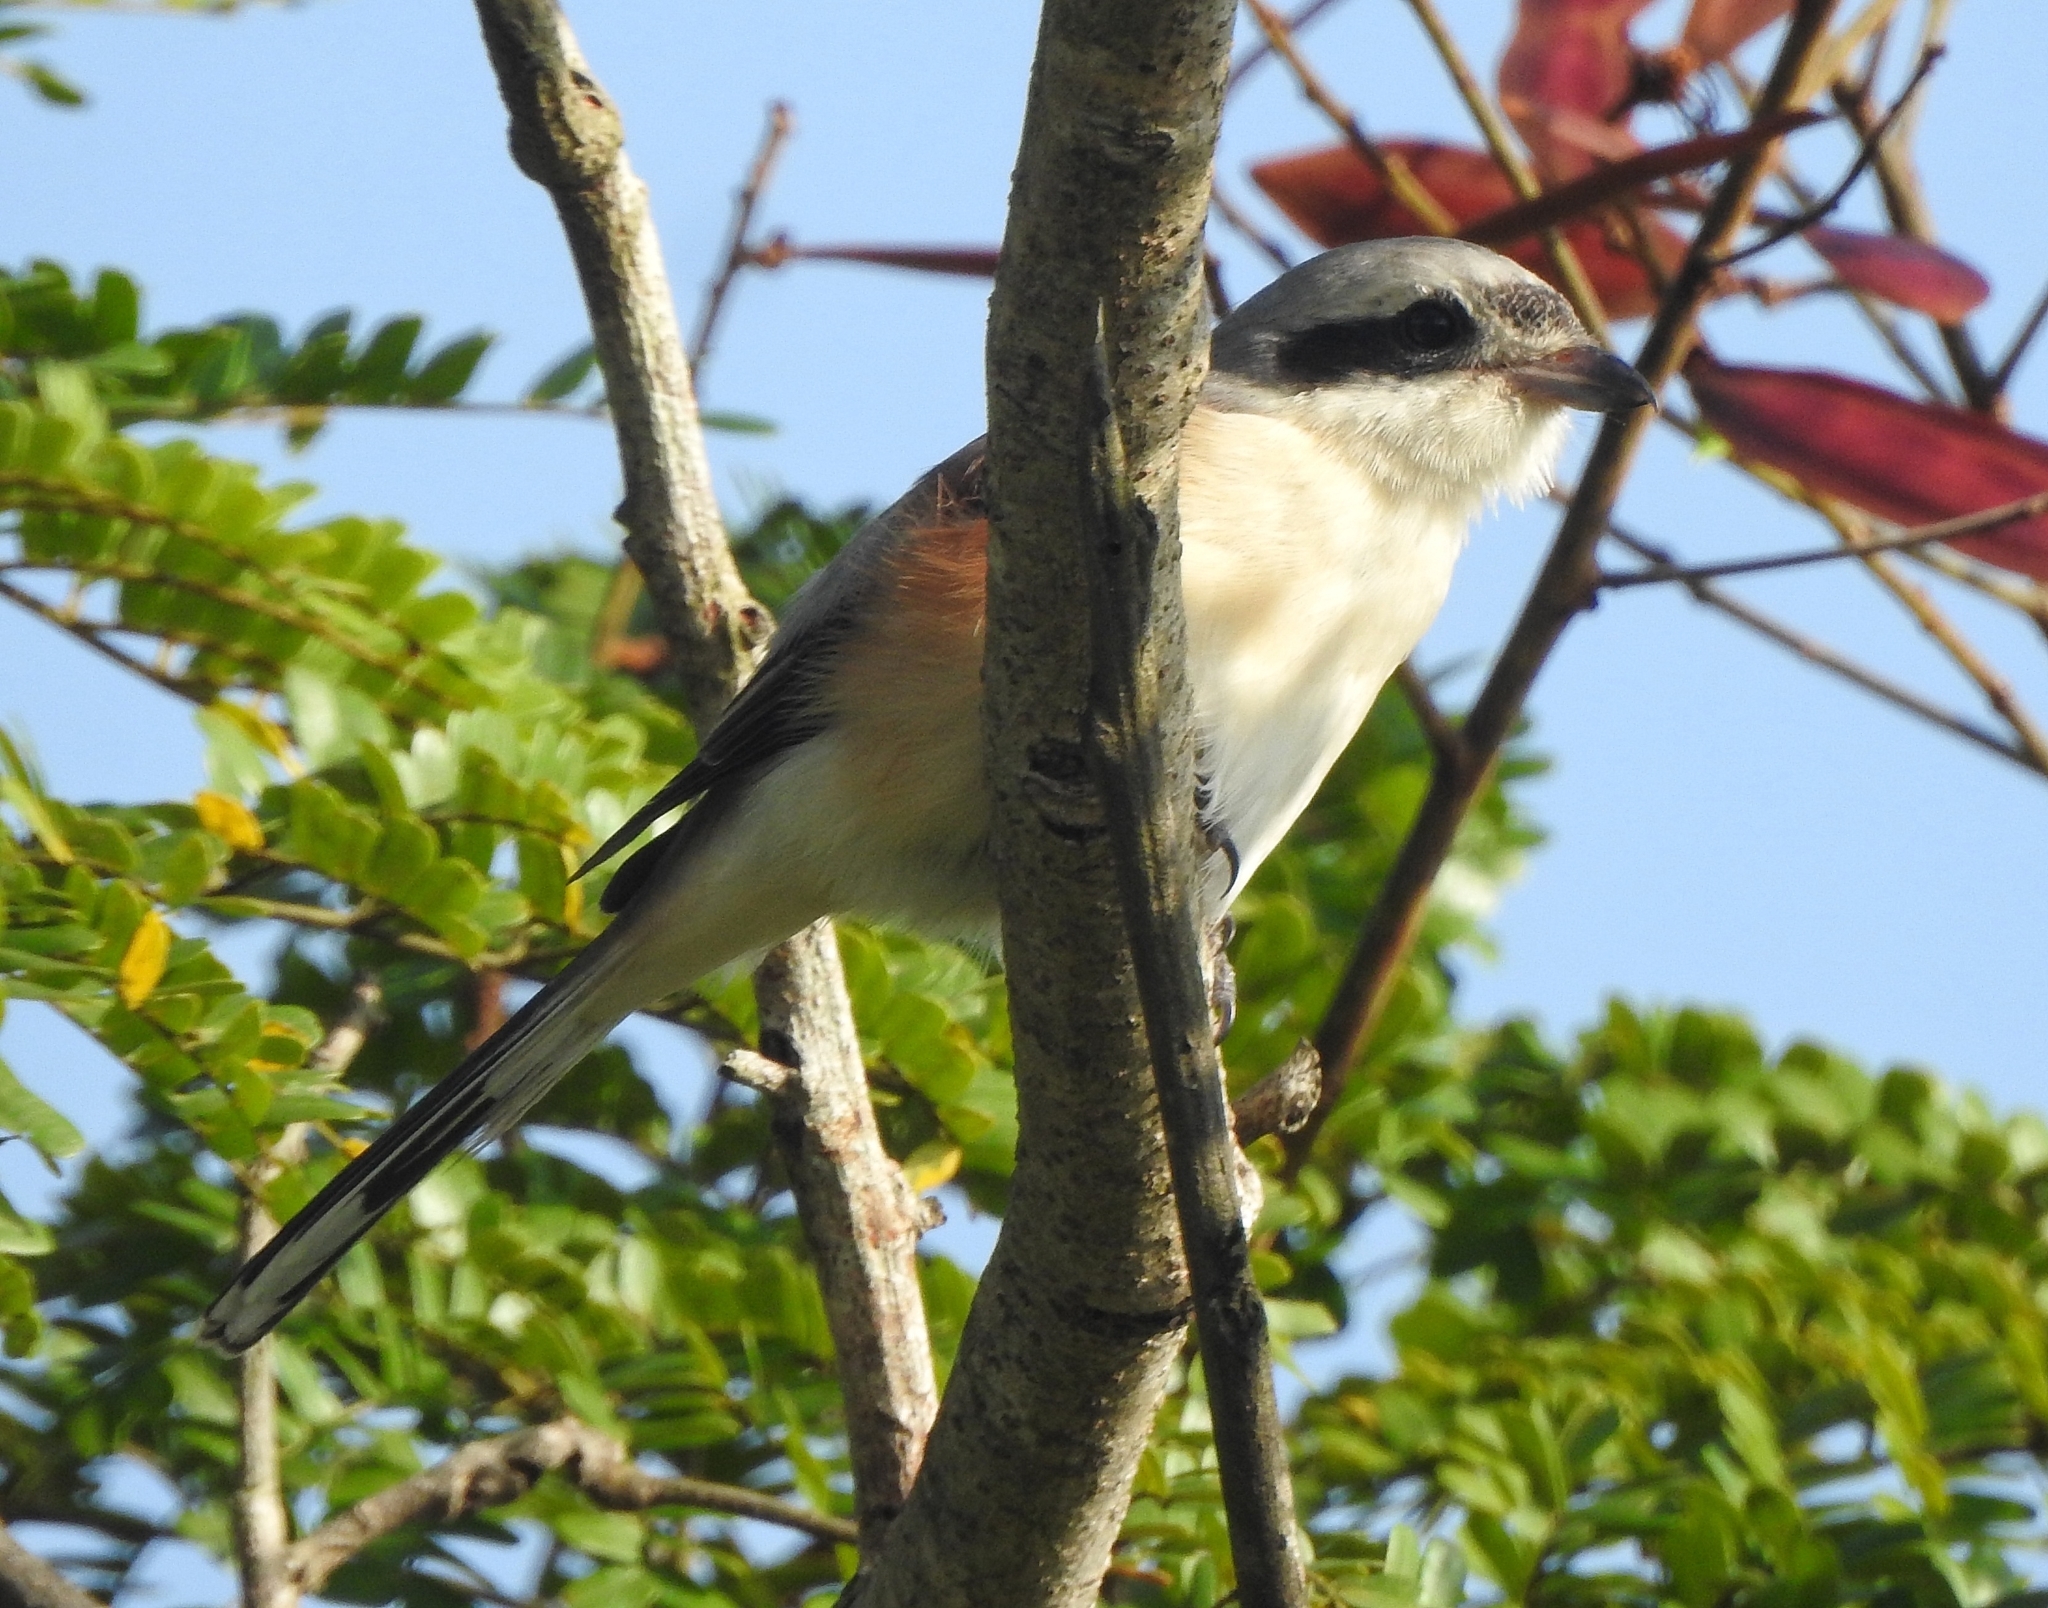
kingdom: Animalia
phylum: Chordata
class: Aves
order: Passeriformes
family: Laniidae
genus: Lanius
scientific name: Lanius vittatus
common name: Bay-backed shrike
